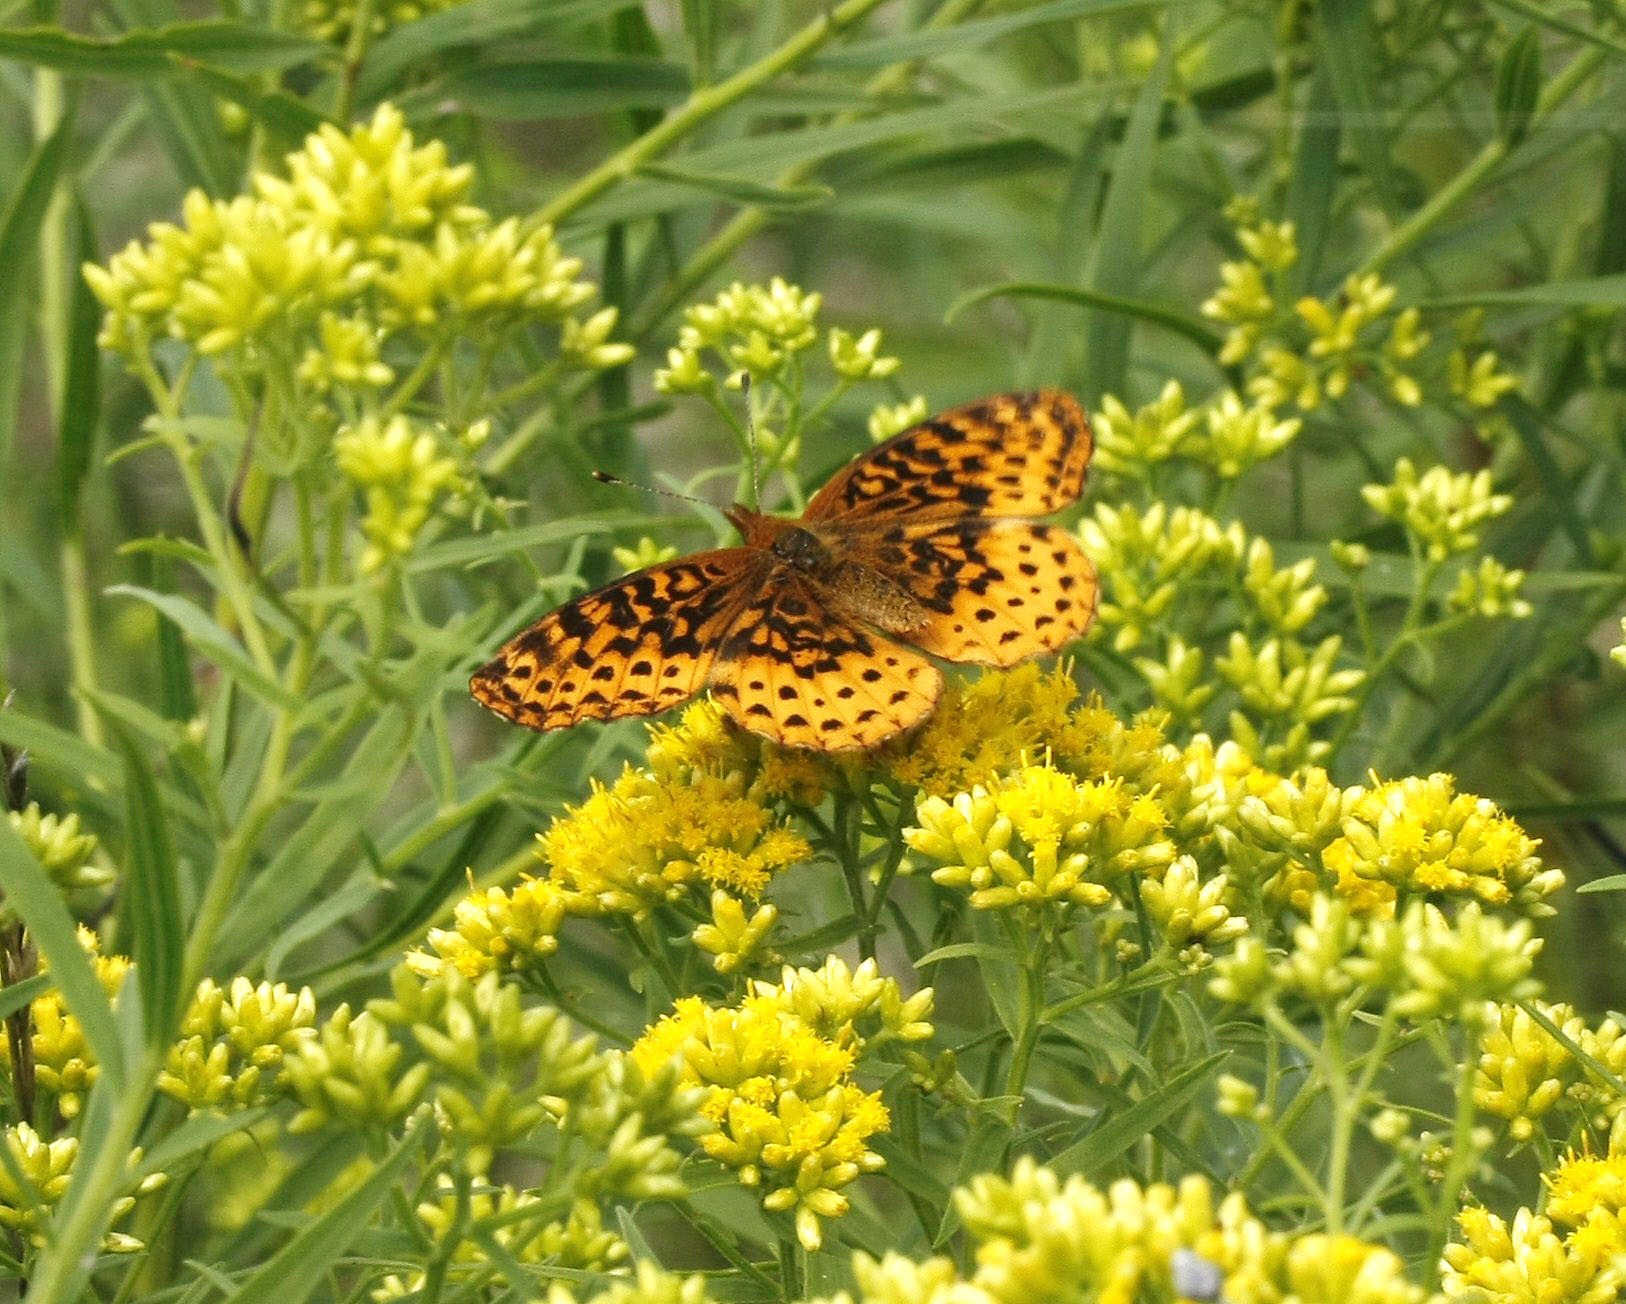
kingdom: Animalia
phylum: Arthropoda
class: Insecta
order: Lepidoptera
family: Nymphalidae
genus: Speyeria
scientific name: Speyeria cybele
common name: Great spangled fritillary
